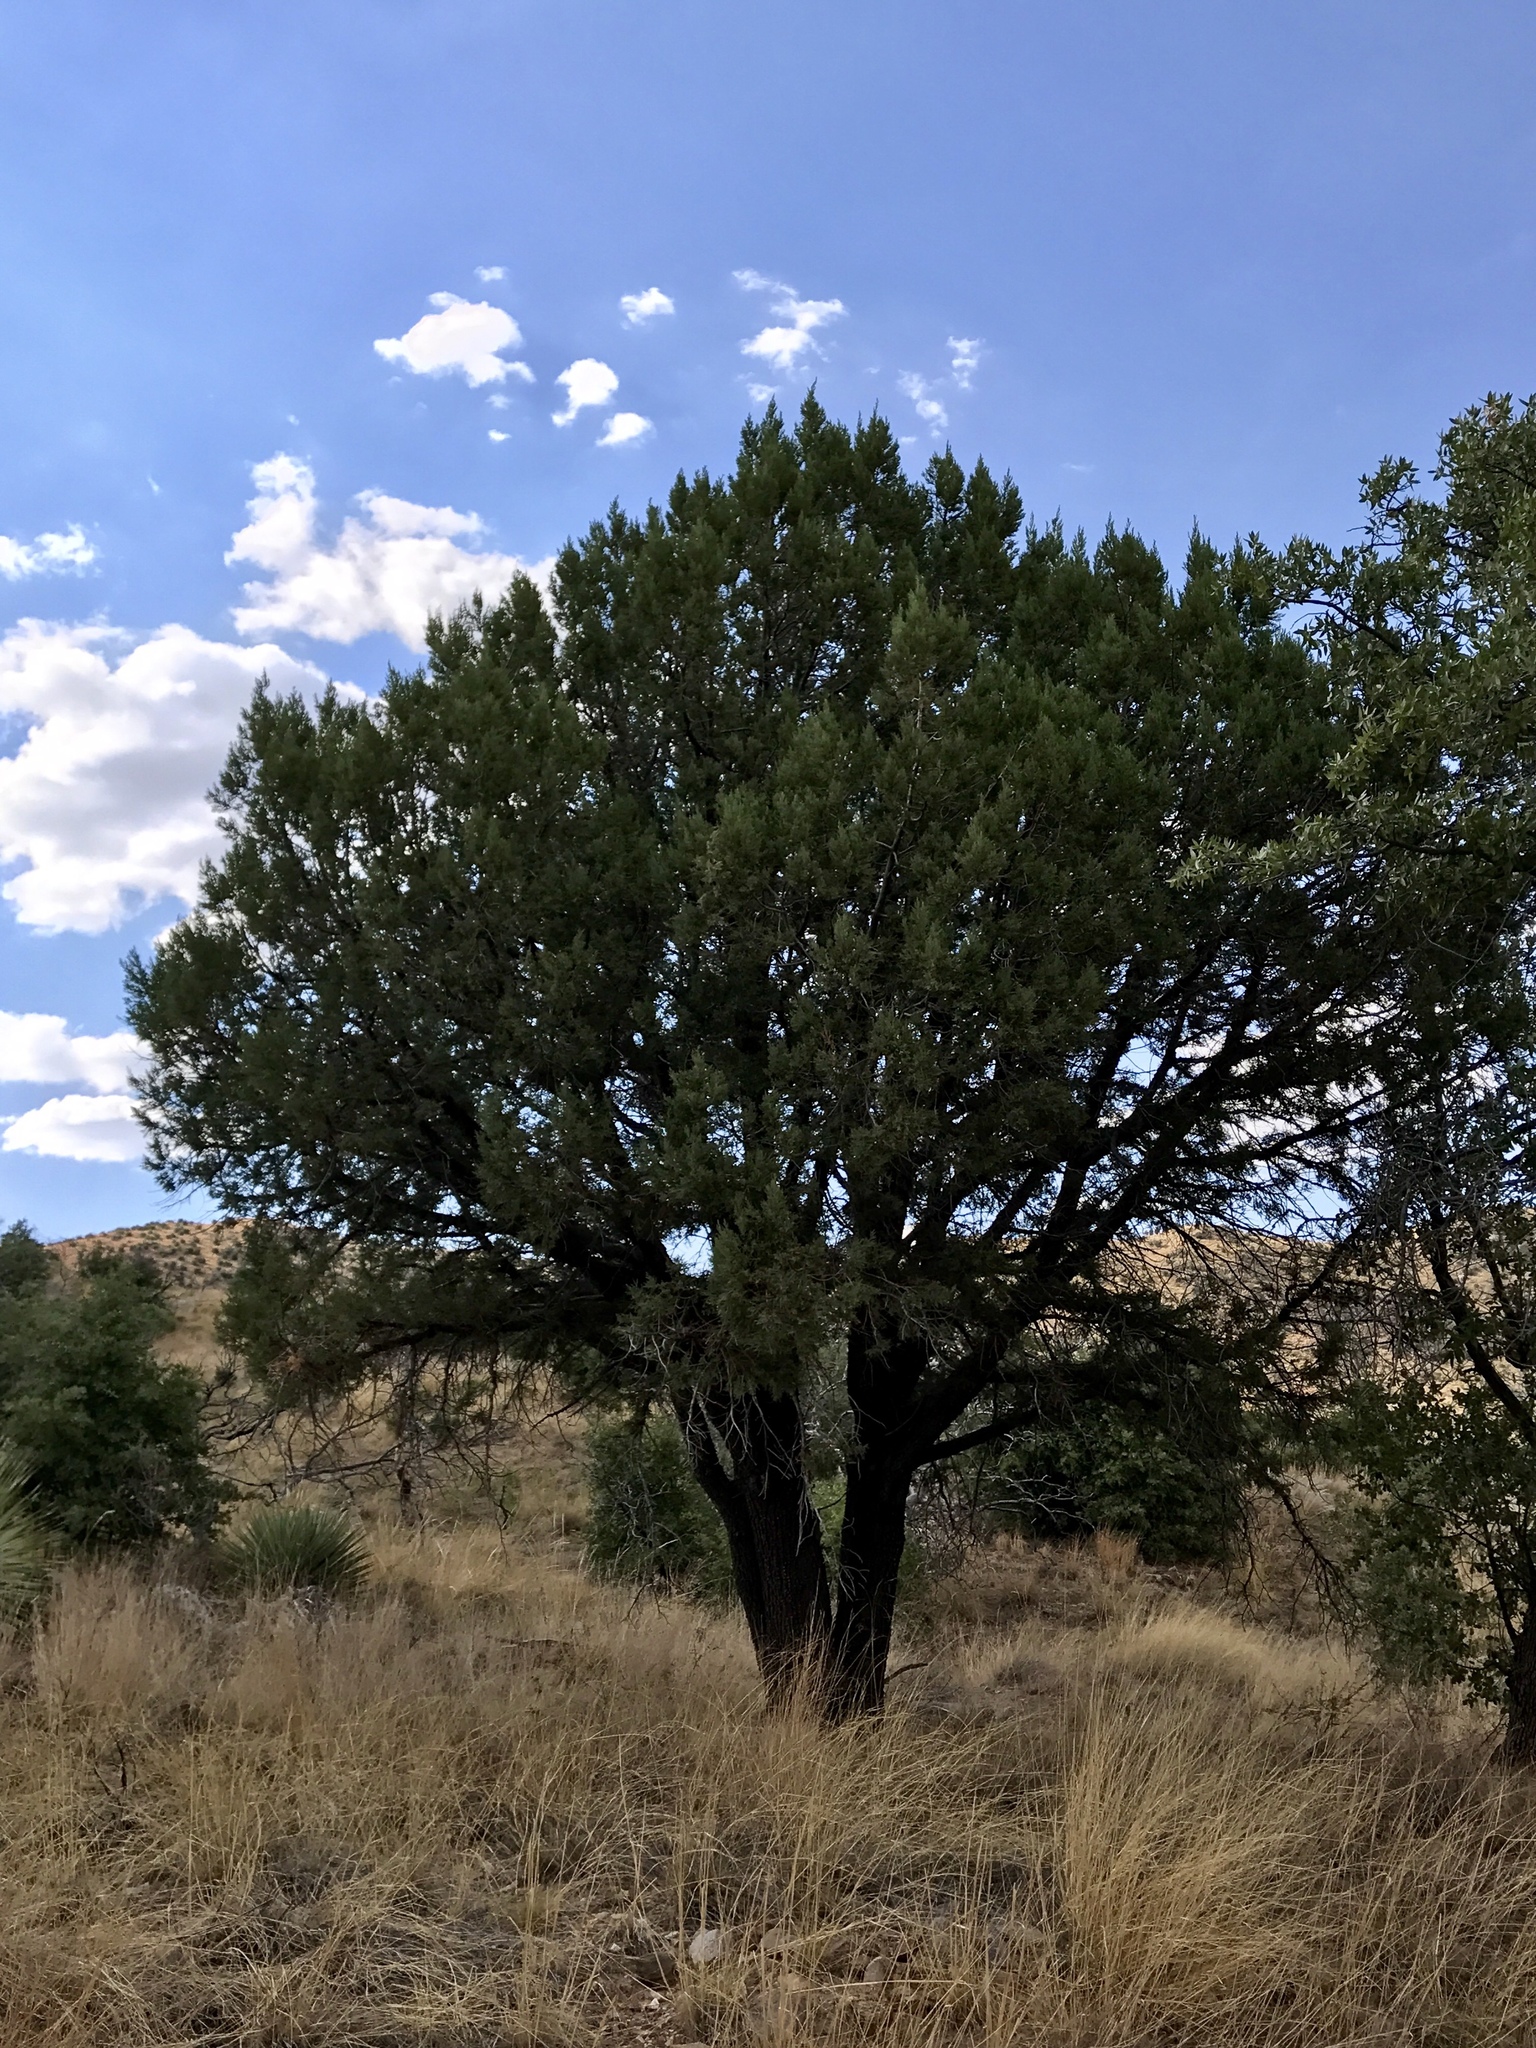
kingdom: Plantae
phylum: Tracheophyta
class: Pinopsida
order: Pinales
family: Cupressaceae
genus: Juniperus
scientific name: Juniperus deppeana
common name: Alligator juniper
